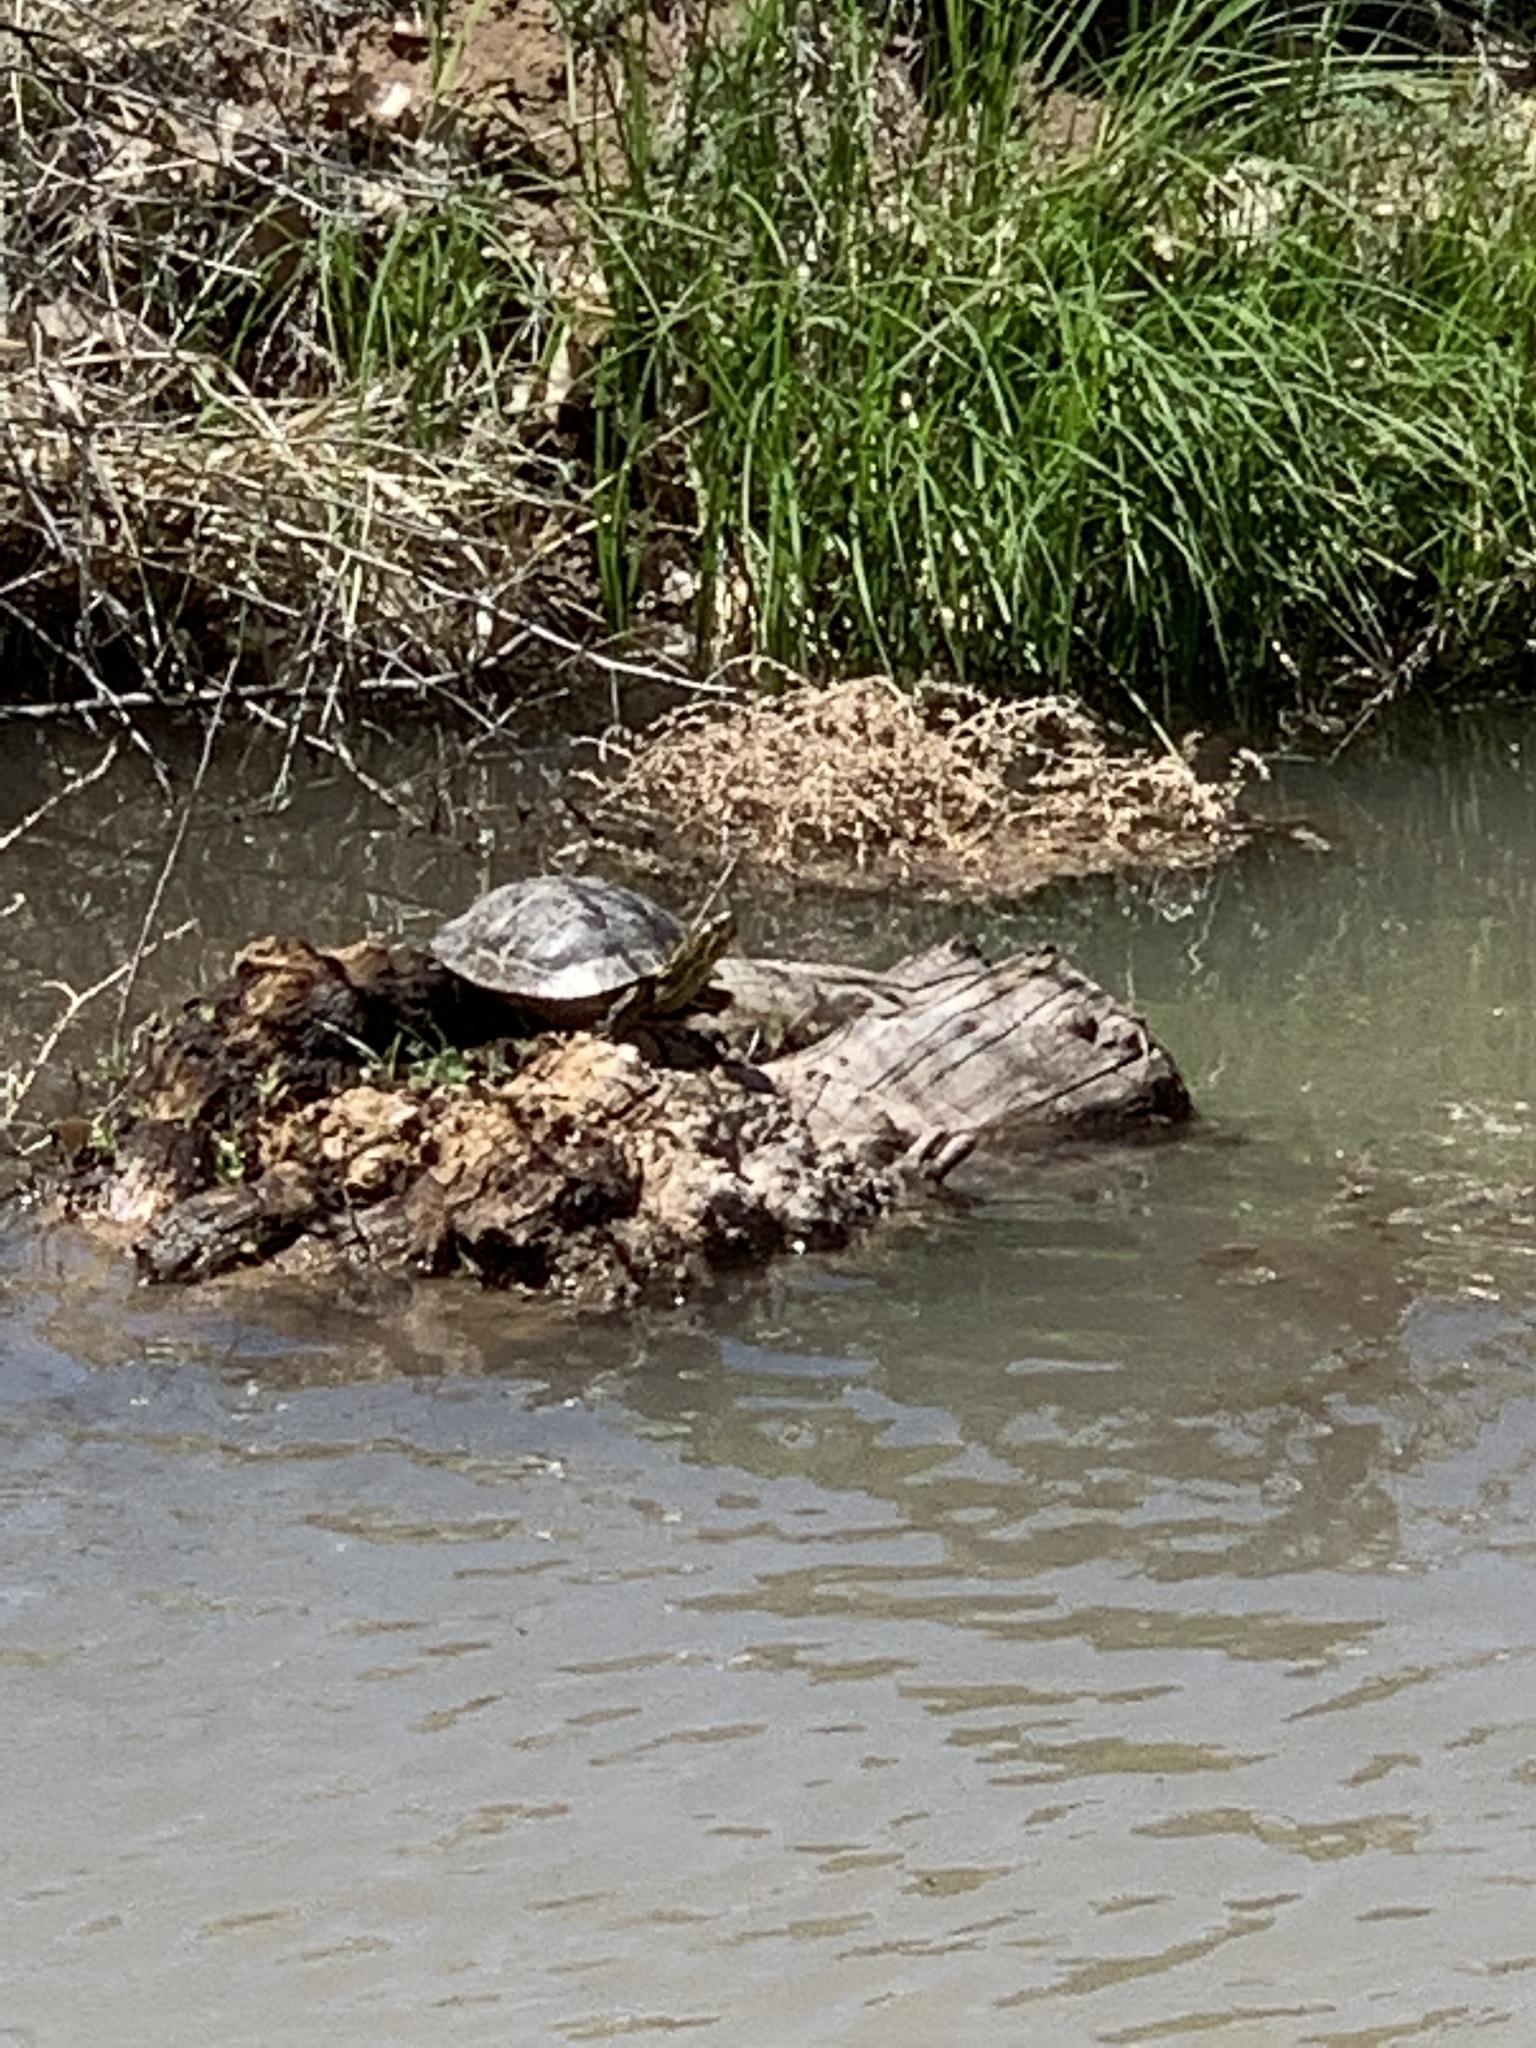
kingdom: Animalia
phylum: Chordata
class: Testudines
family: Emydidae
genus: Chrysemys
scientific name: Chrysemys picta
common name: Painted turtle
